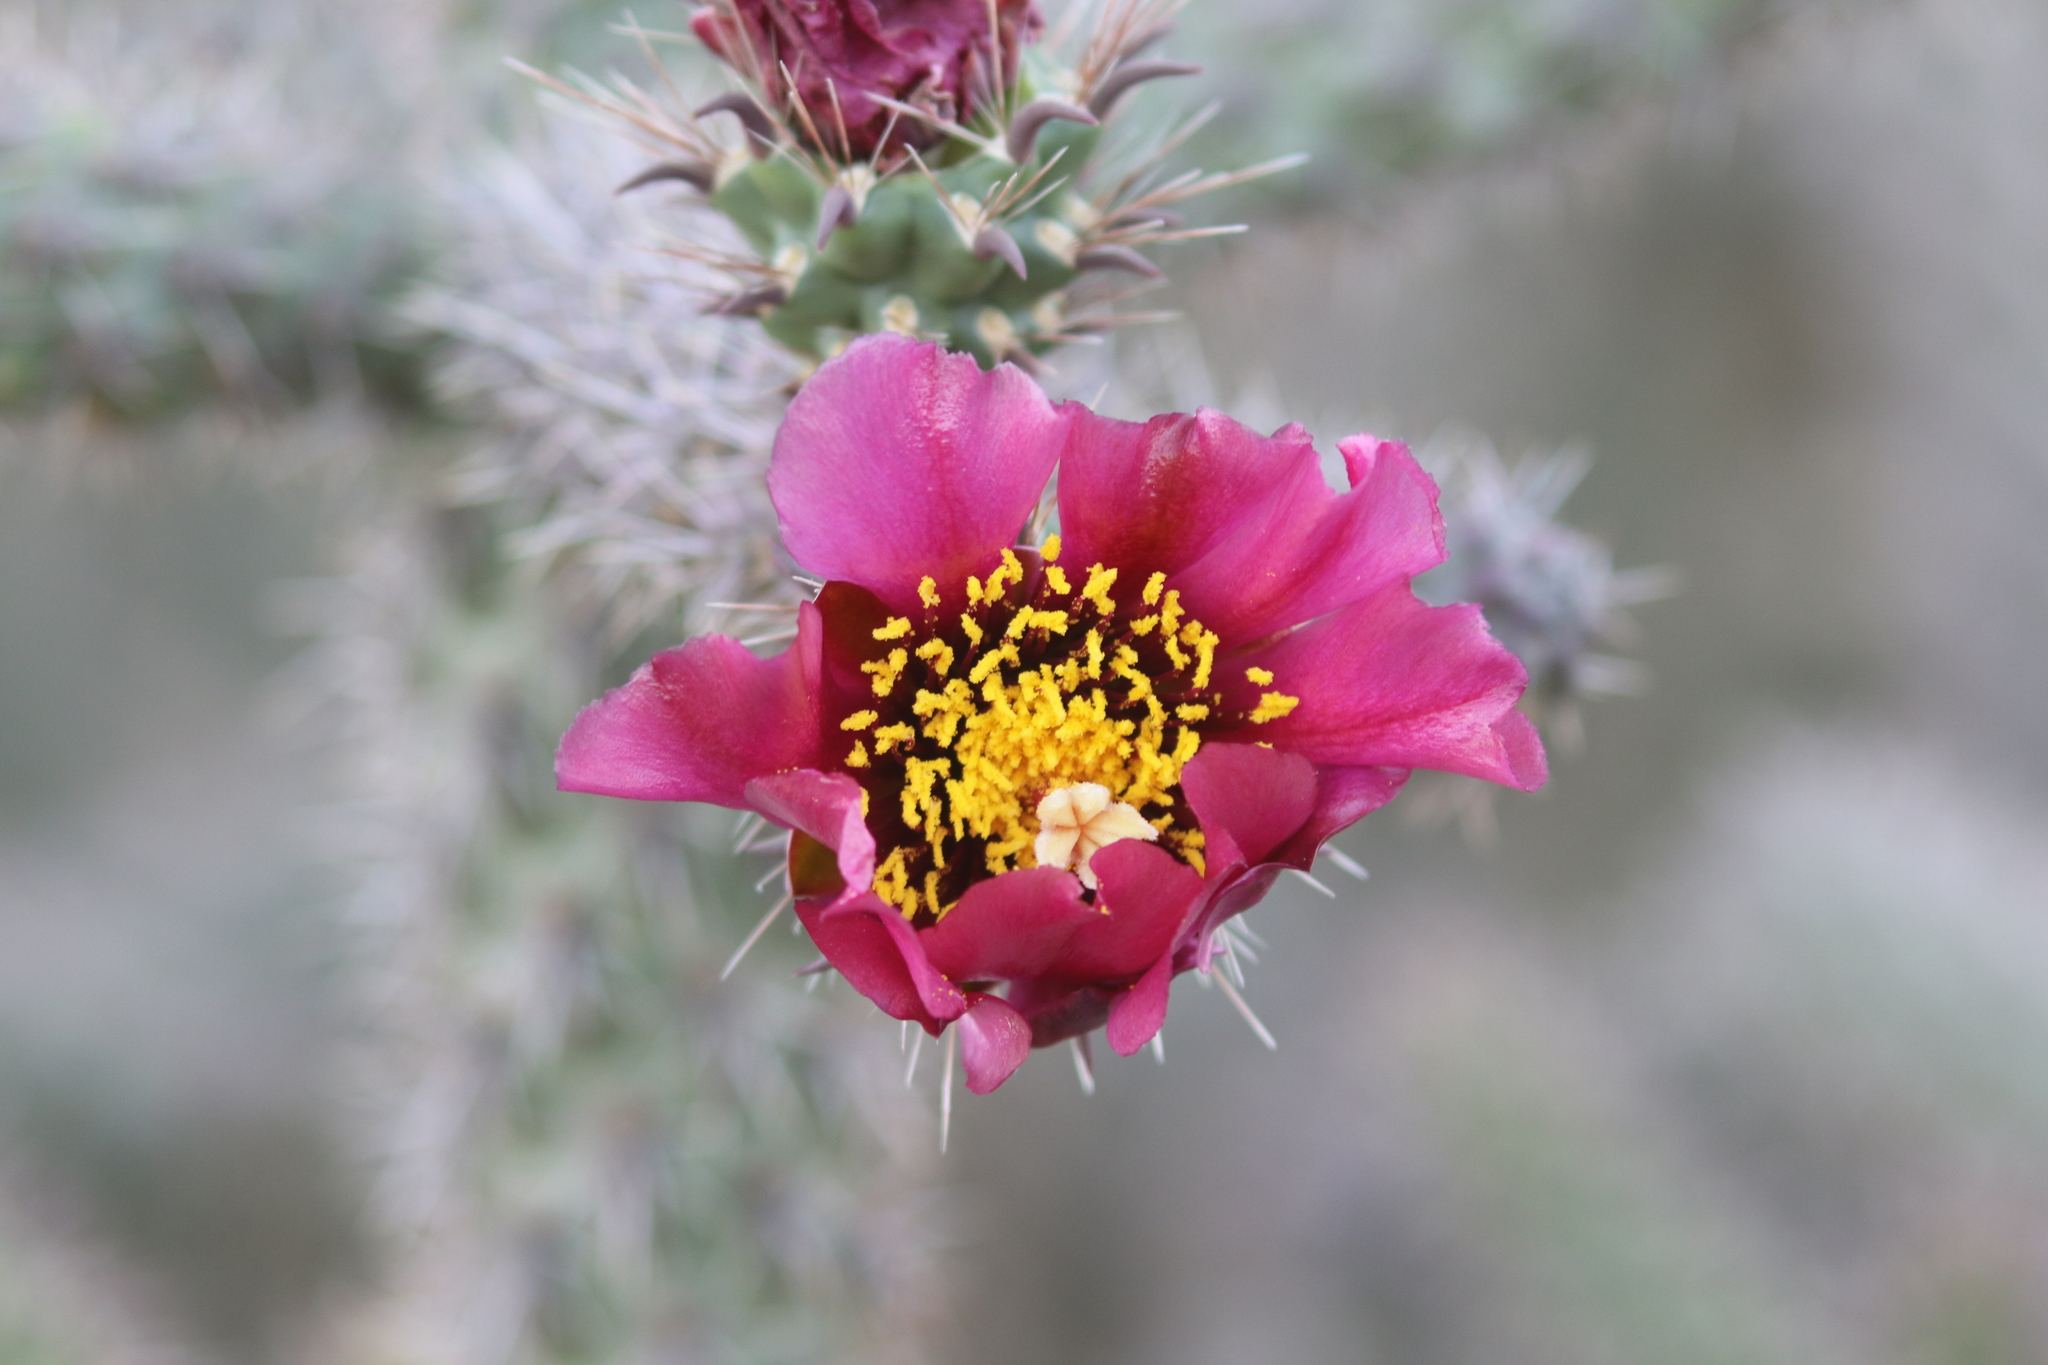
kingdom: Plantae
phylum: Tracheophyta
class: Magnoliopsida
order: Caryophyllales
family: Cactaceae
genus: Cylindropuntia
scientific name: Cylindropuntia imbricata
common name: Candelabrum cactus
